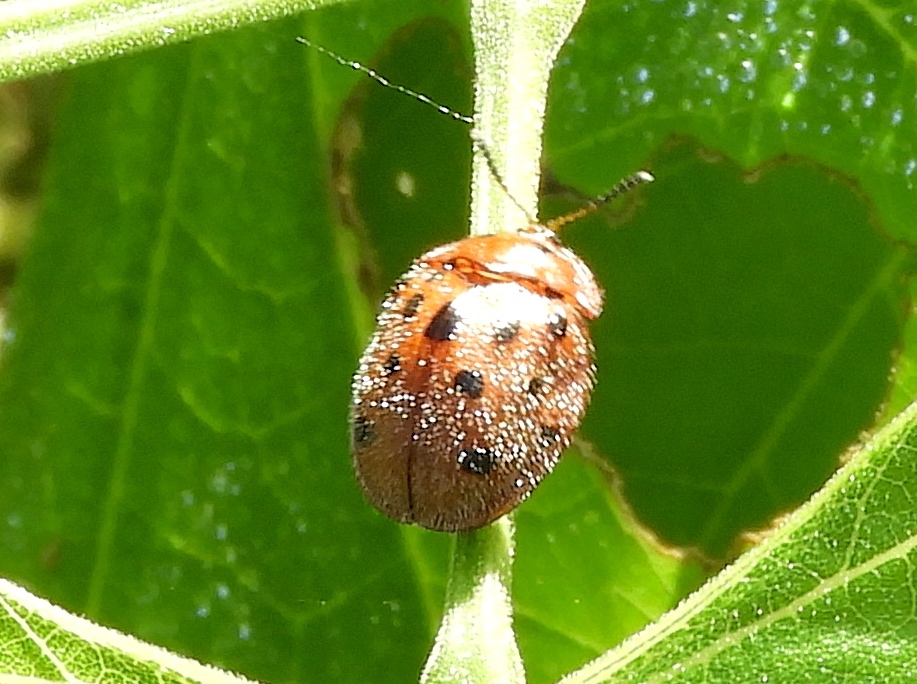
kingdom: Animalia
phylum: Arthropoda
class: Insecta
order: Coleoptera
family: Chrysomelidae
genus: Chelymorpha
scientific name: Chelymorpha
